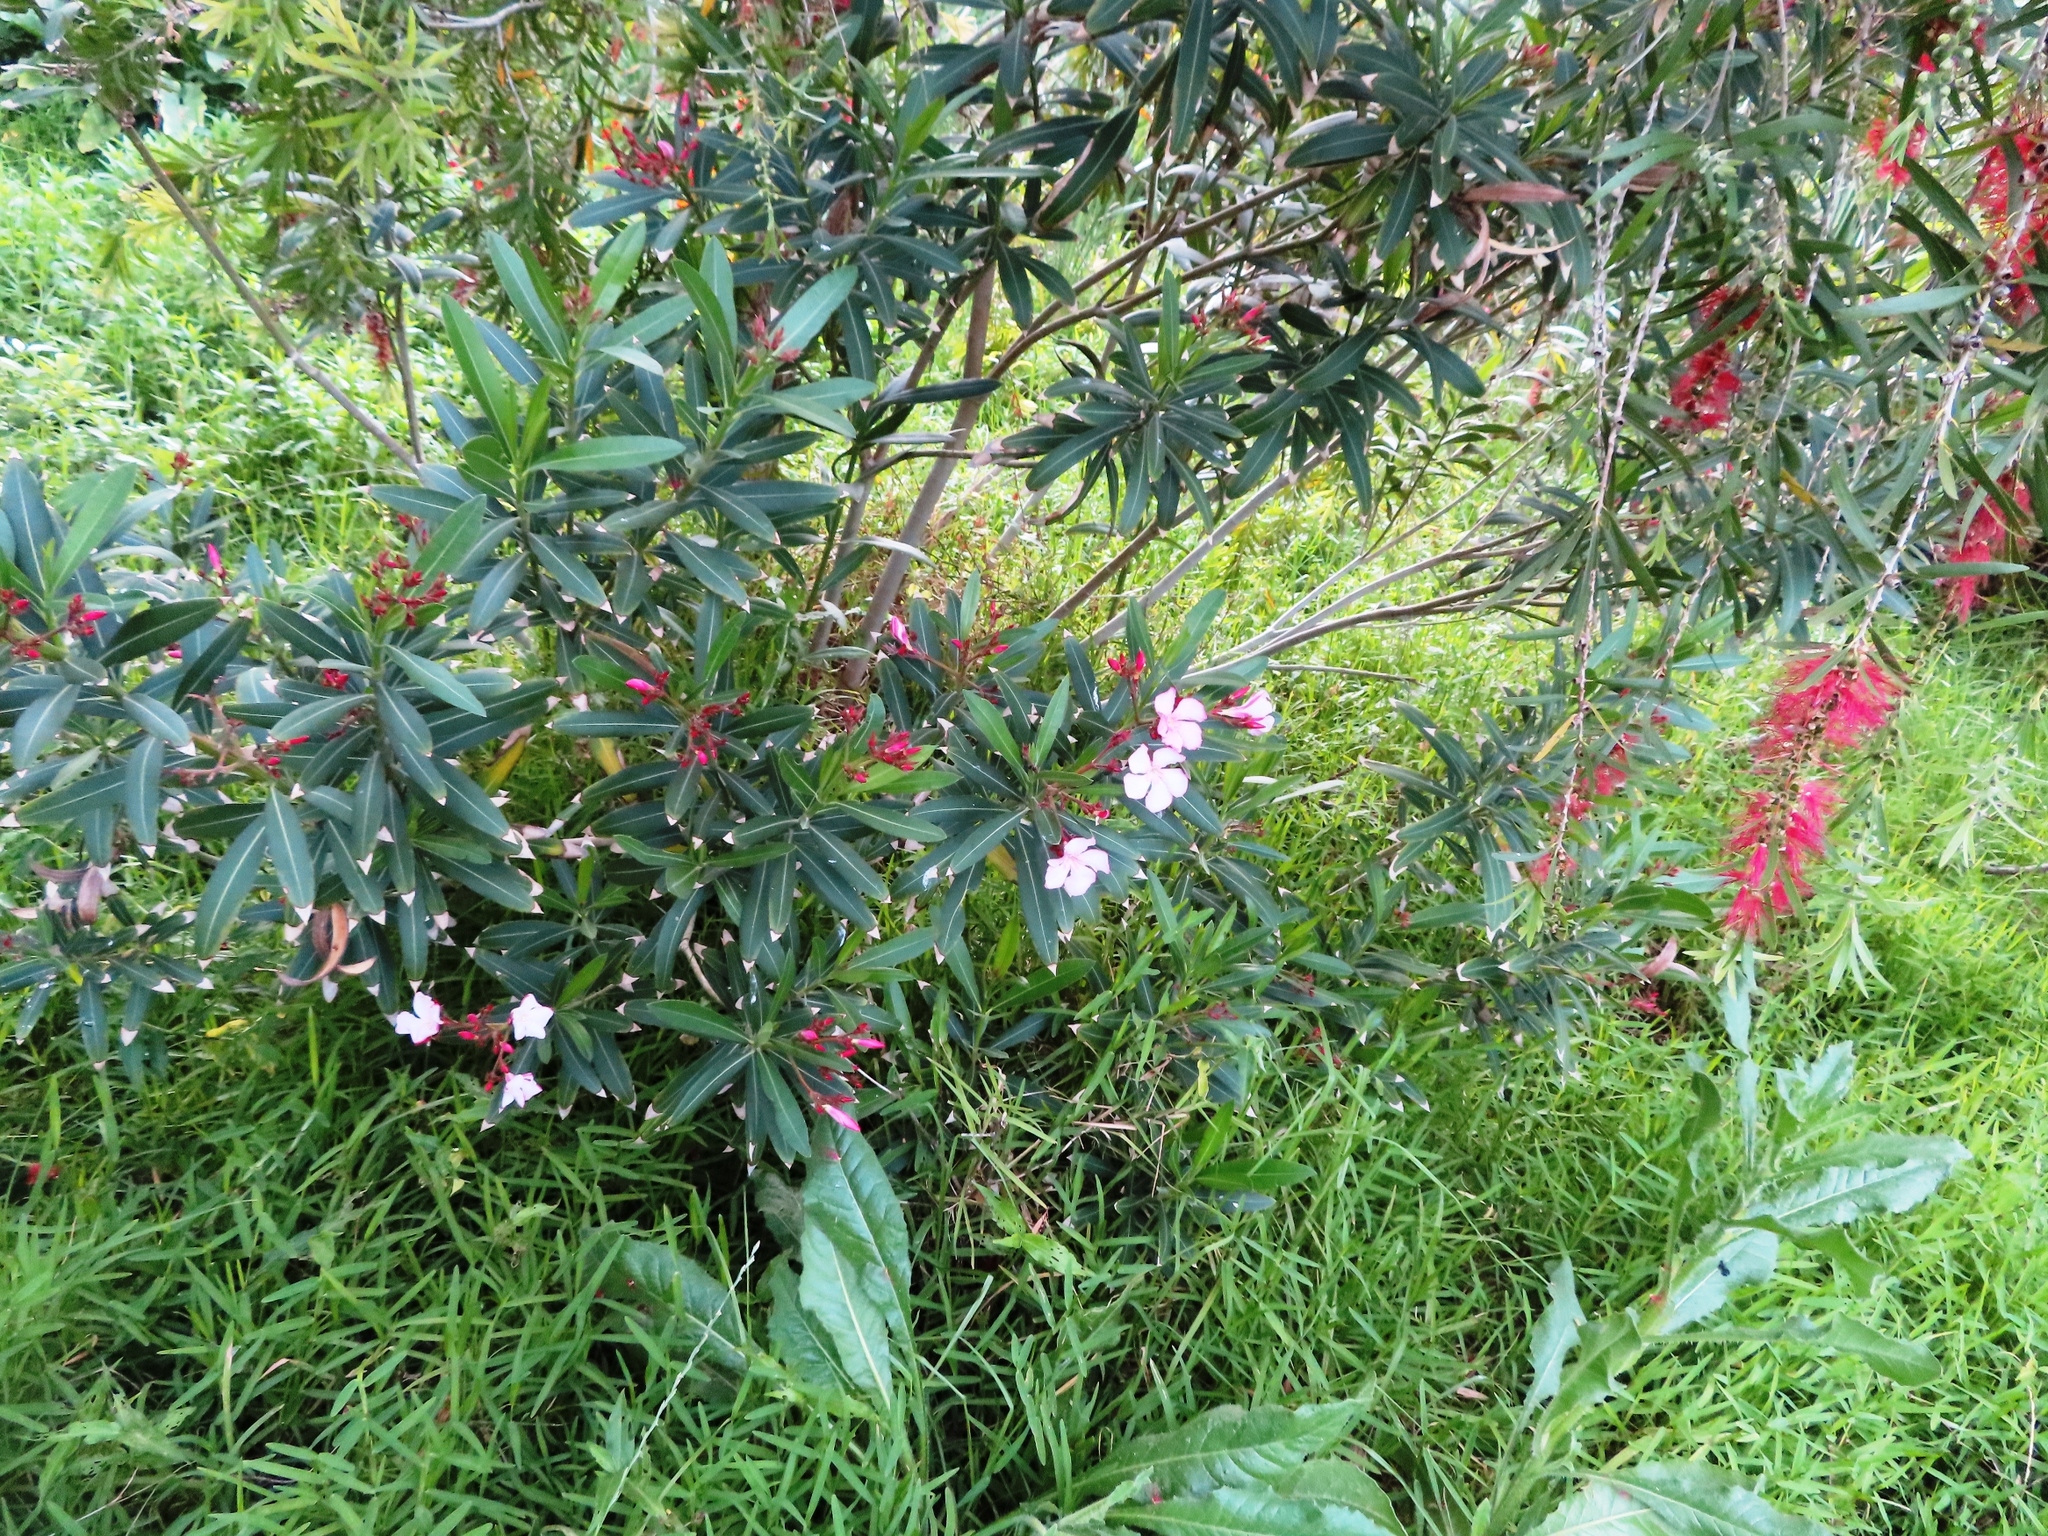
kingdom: Plantae
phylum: Tracheophyta
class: Magnoliopsida
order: Gentianales
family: Apocynaceae
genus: Nerium
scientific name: Nerium oleander
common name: Oleander
